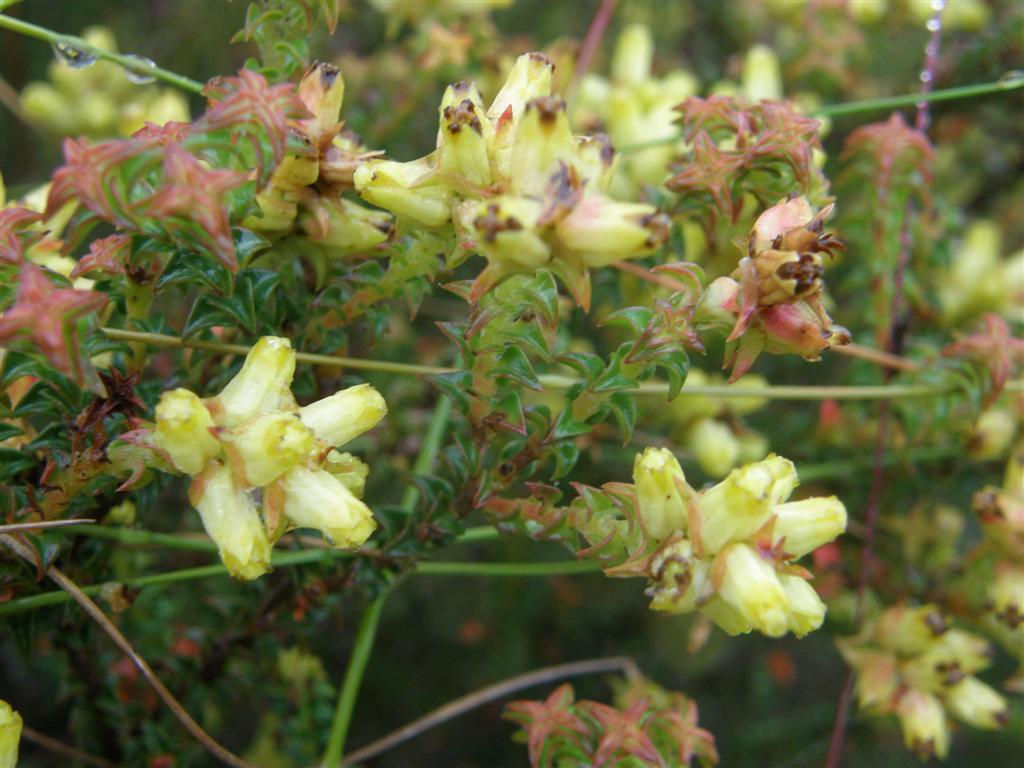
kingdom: Plantae
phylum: Tracheophyta
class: Magnoliopsida
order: Myrtales
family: Penaeaceae
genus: Penaea
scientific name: Penaea mucronata
